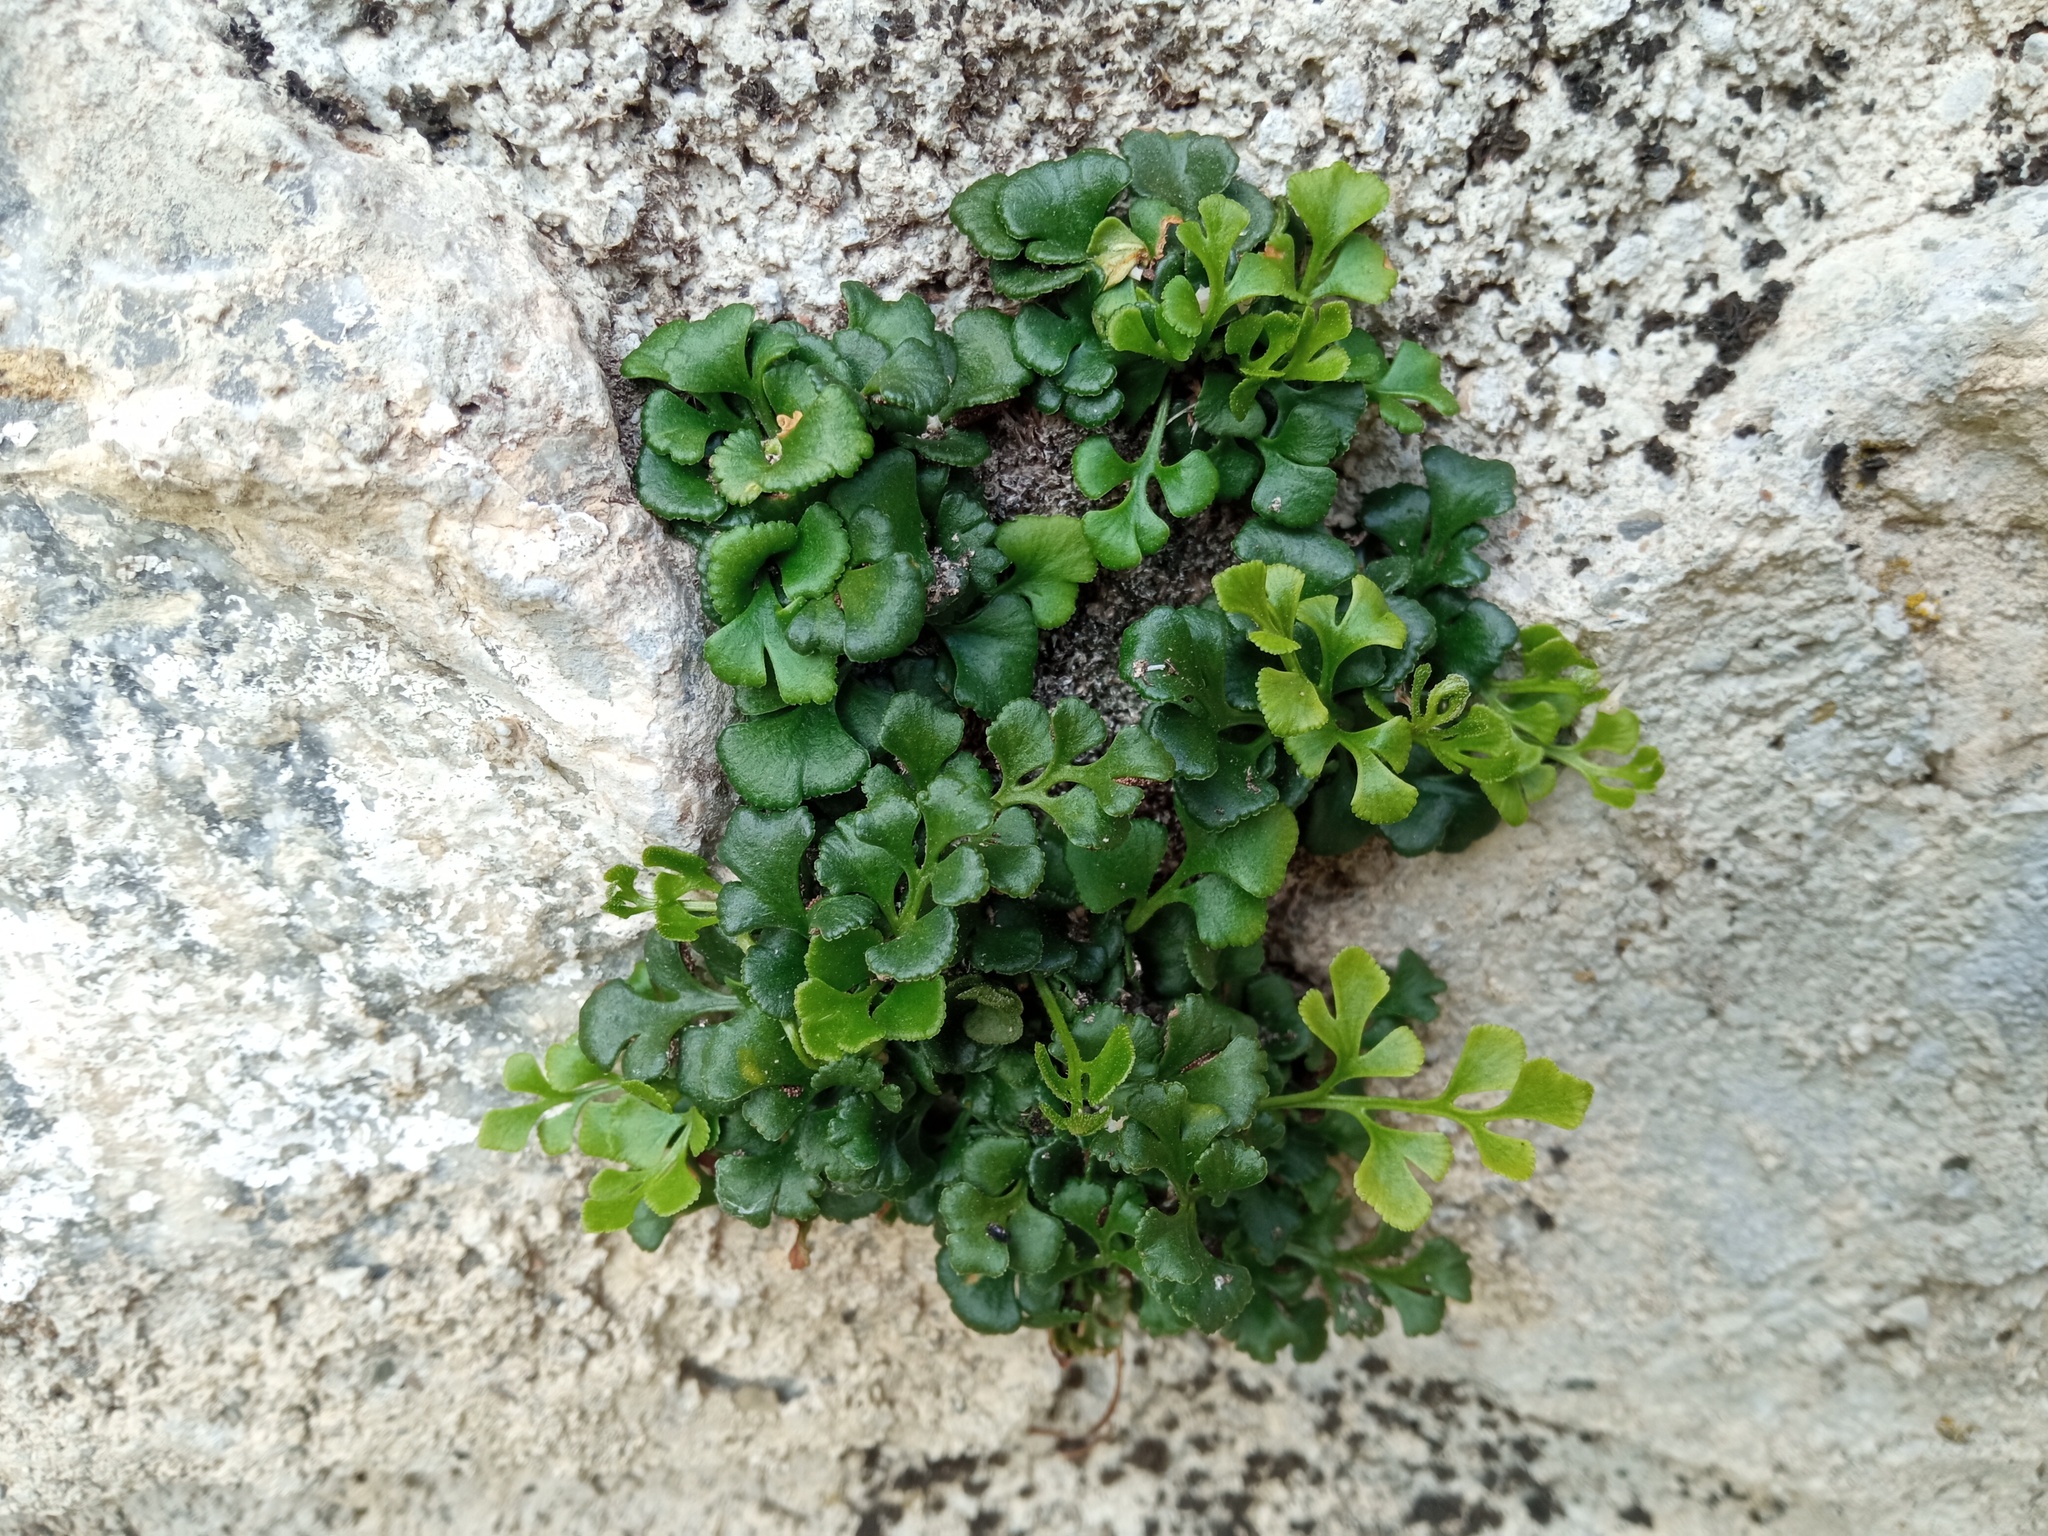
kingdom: Plantae
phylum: Tracheophyta
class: Polypodiopsida
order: Polypodiales
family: Aspleniaceae
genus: Asplenium
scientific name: Asplenium ruta-muraria
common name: Wall-rue
